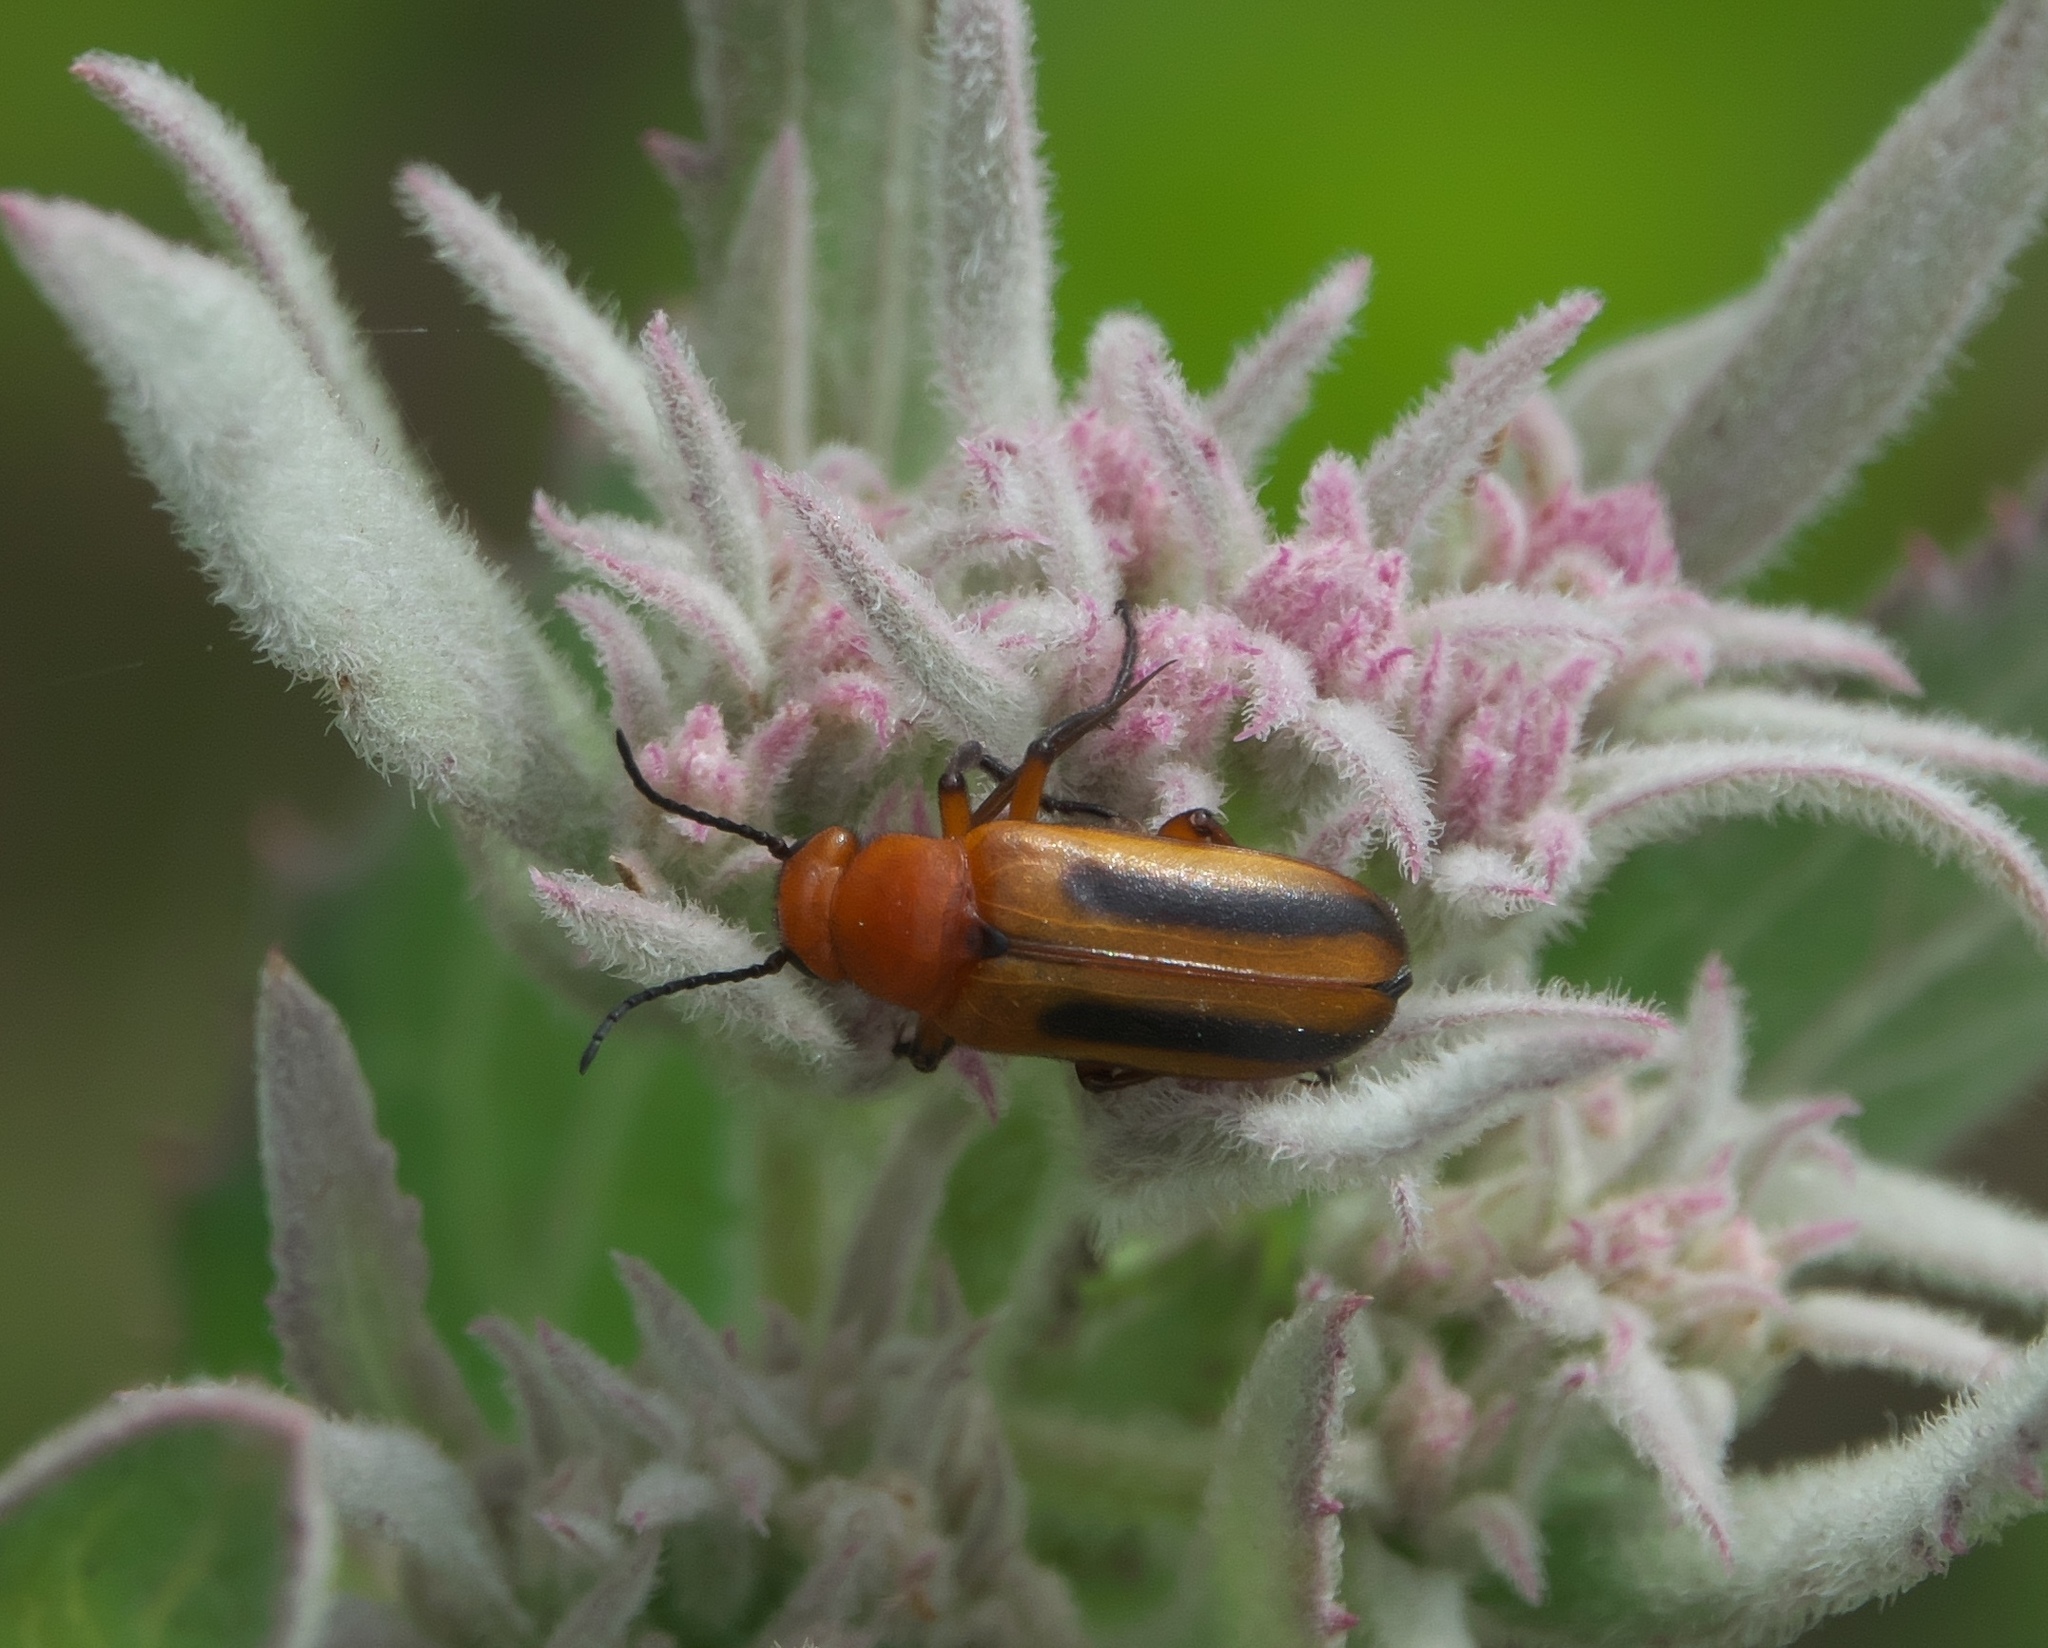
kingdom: Animalia
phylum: Arthropoda
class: Insecta
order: Coleoptera
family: Meloidae
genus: Nemognatha
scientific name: Nemognatha piazata
